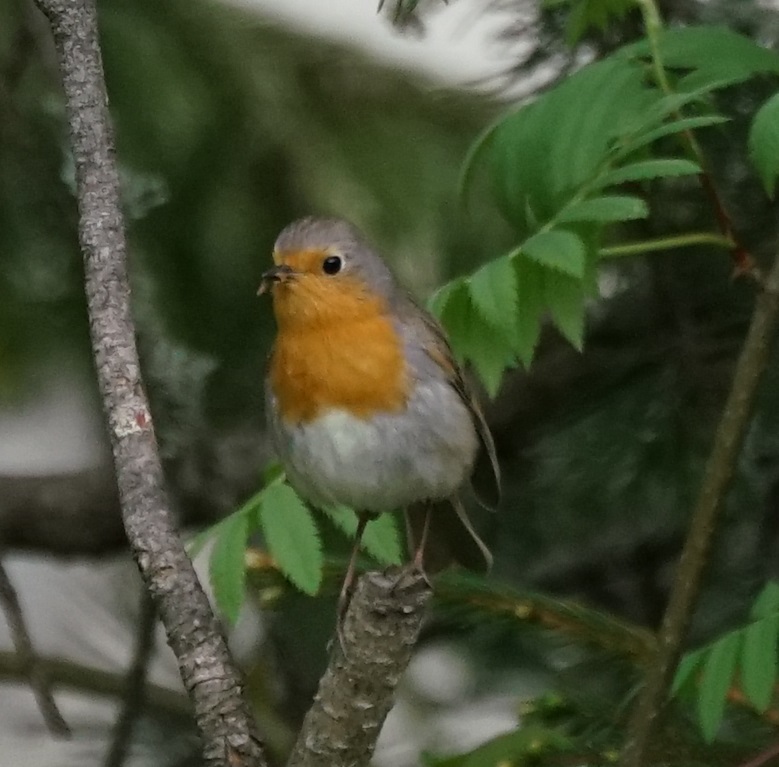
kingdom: Animalia
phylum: Chordata
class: Aves
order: Passeriformes
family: Muscicapidae
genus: Erithacus
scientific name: Erithacus rubecula
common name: European robin
